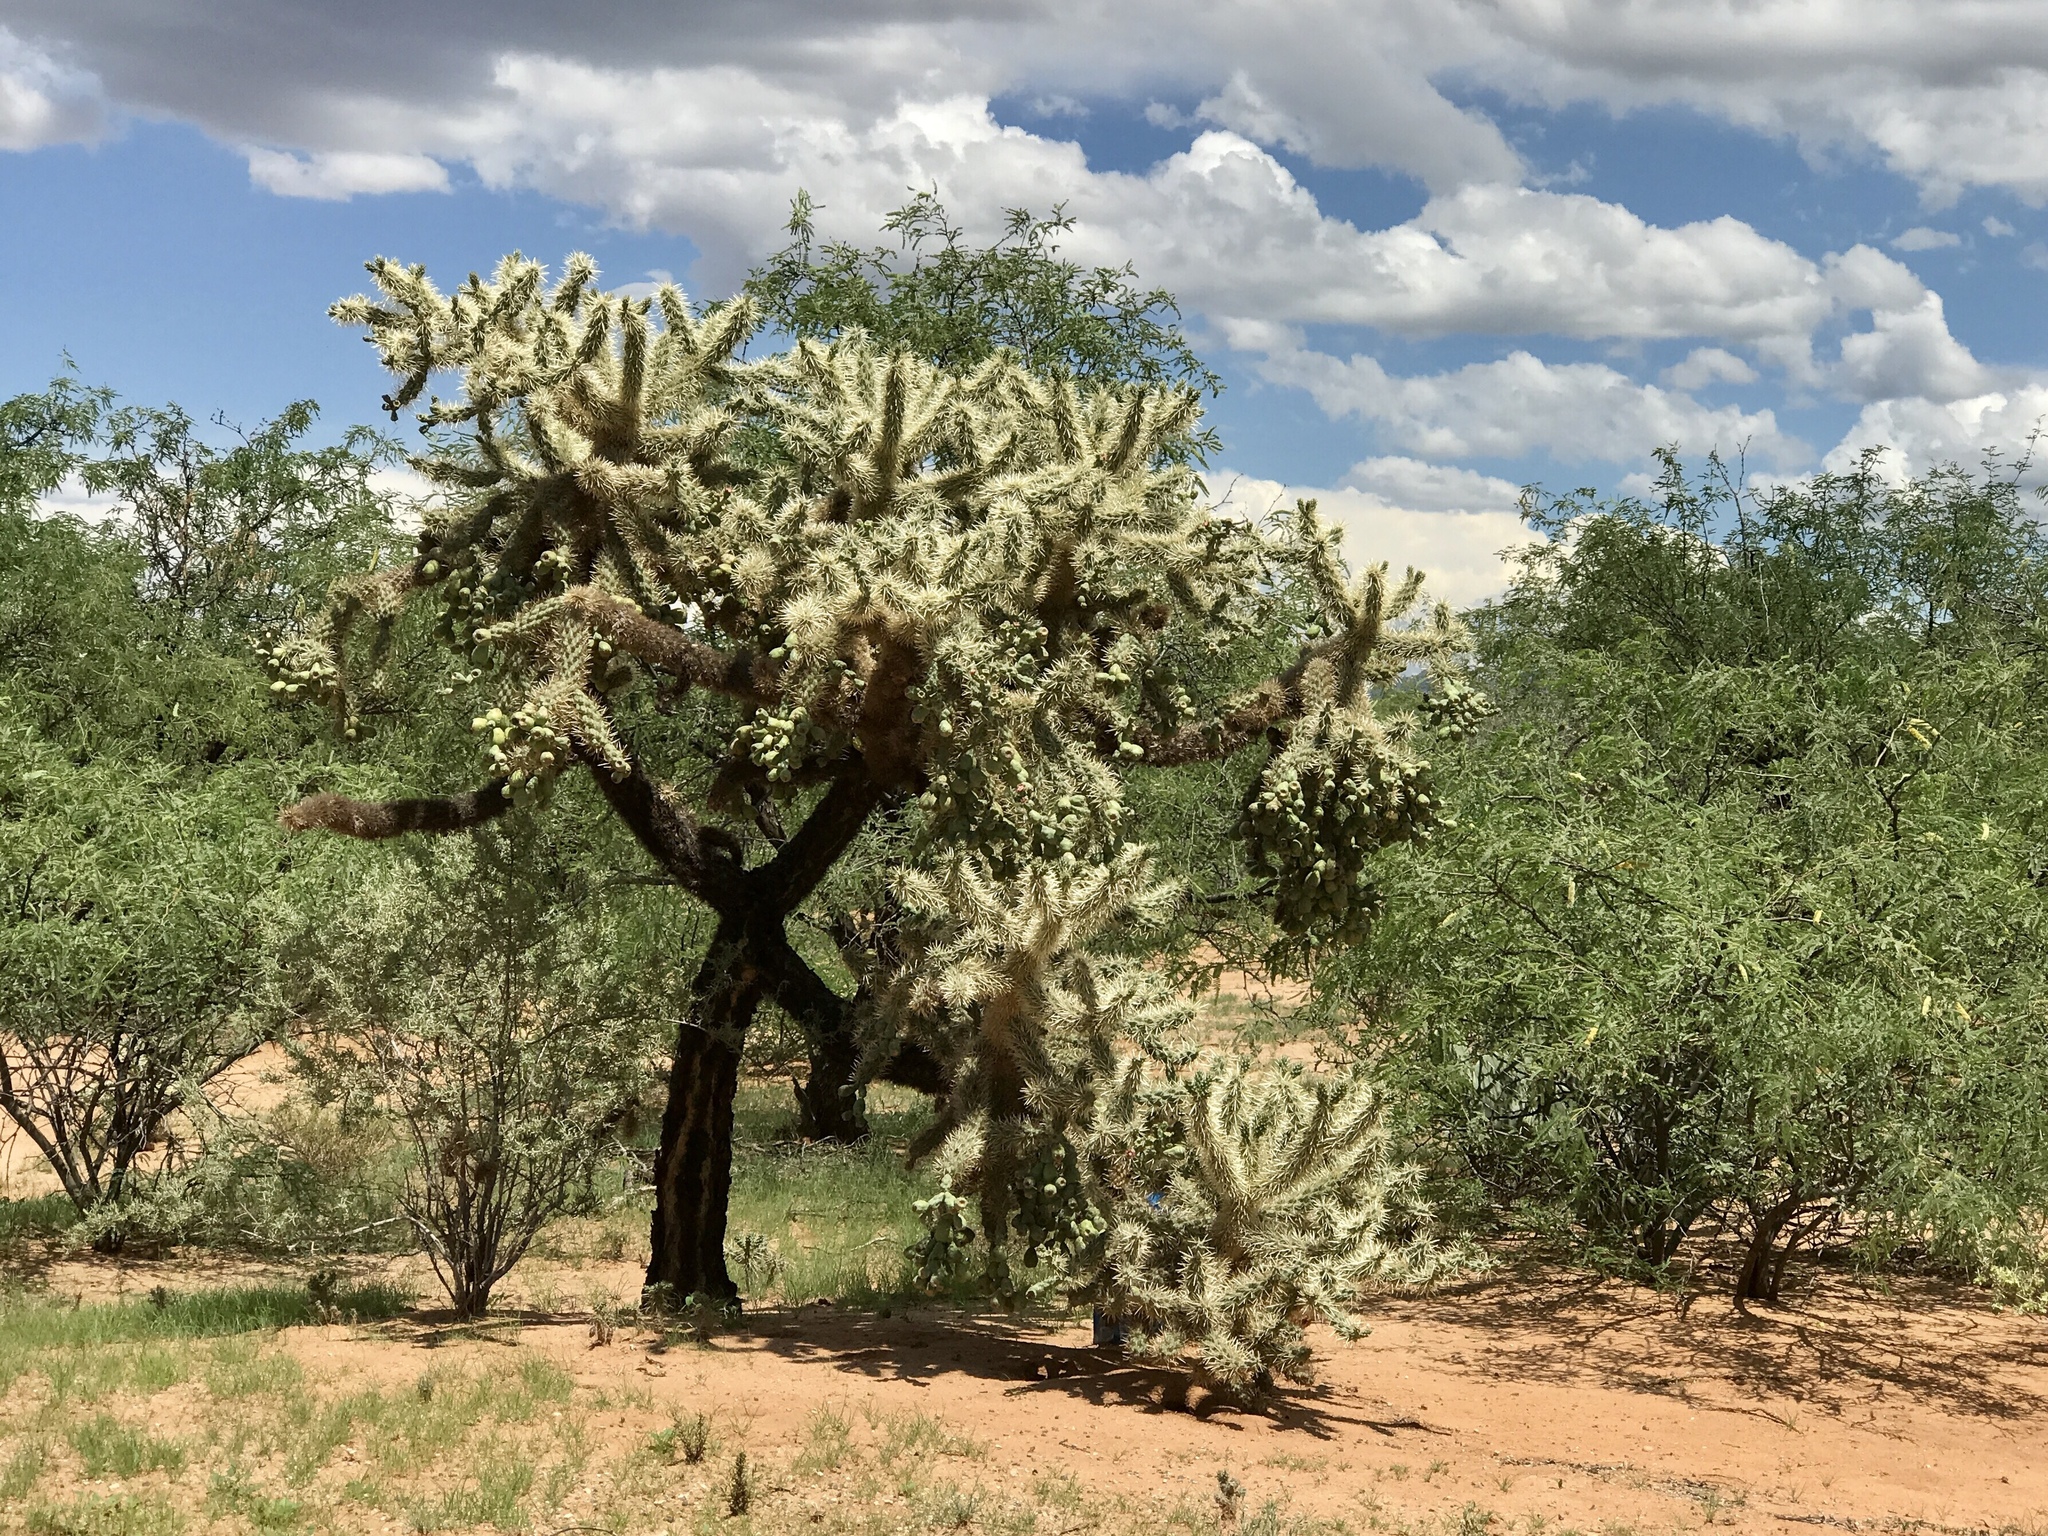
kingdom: Plantae
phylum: Tracheophyta
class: Magnoliopsida
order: Caryophyllales
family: Cactaceae
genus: Cylindropuntia
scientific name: Cylindropuntia fulgida
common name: Jumping cholla
